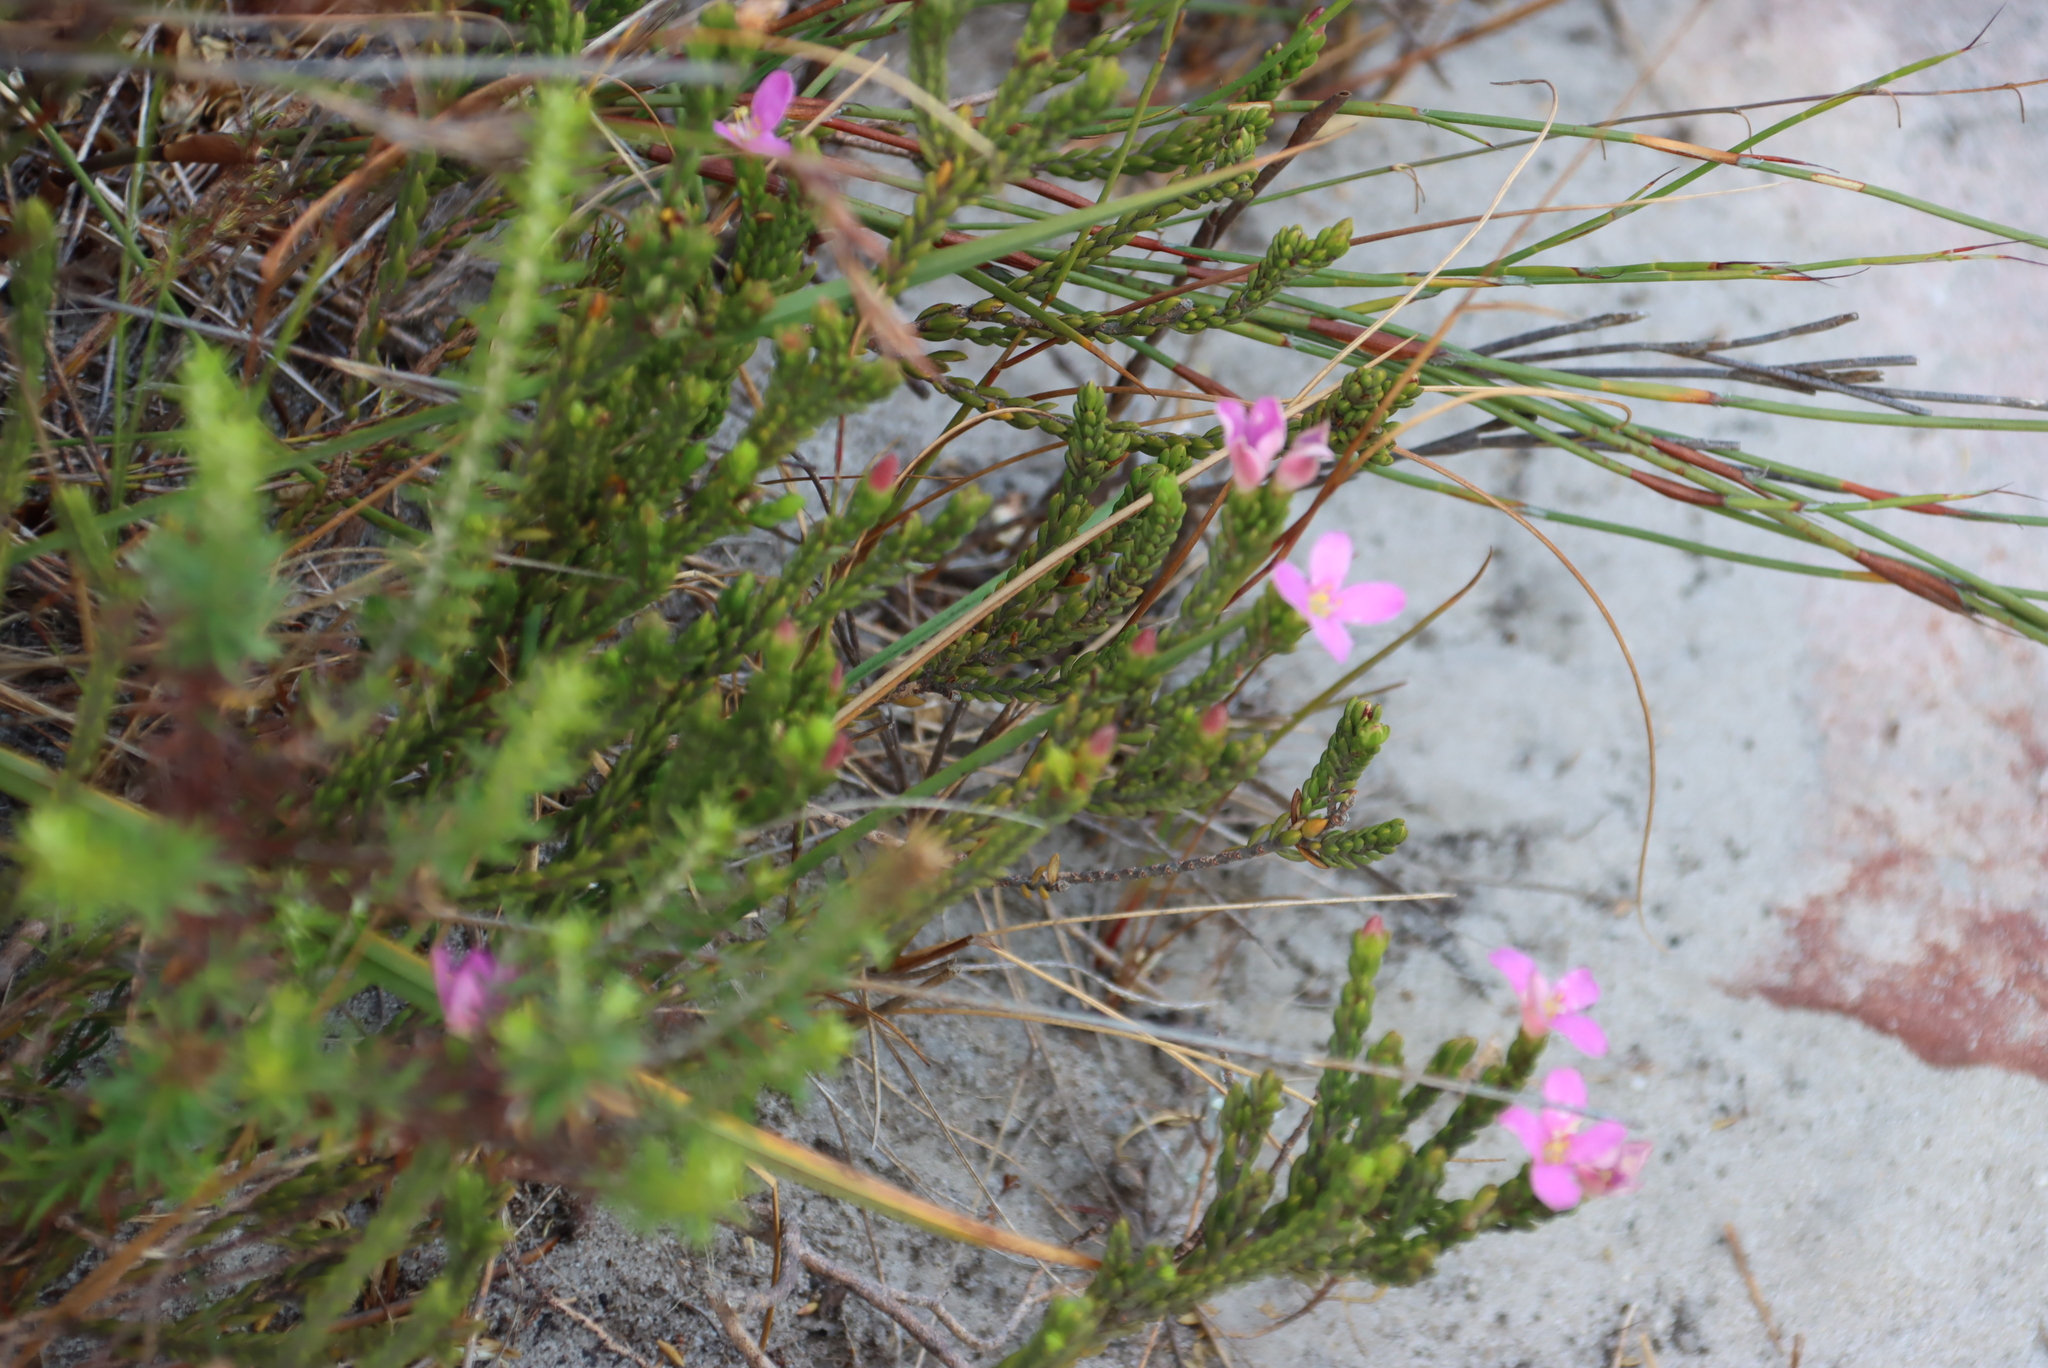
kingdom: Plantae
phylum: Tracheophyta
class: Magnoliopsida
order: Malvales
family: Thymelaeaceae
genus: Lachnaea
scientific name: Lachnaea grandiflora
